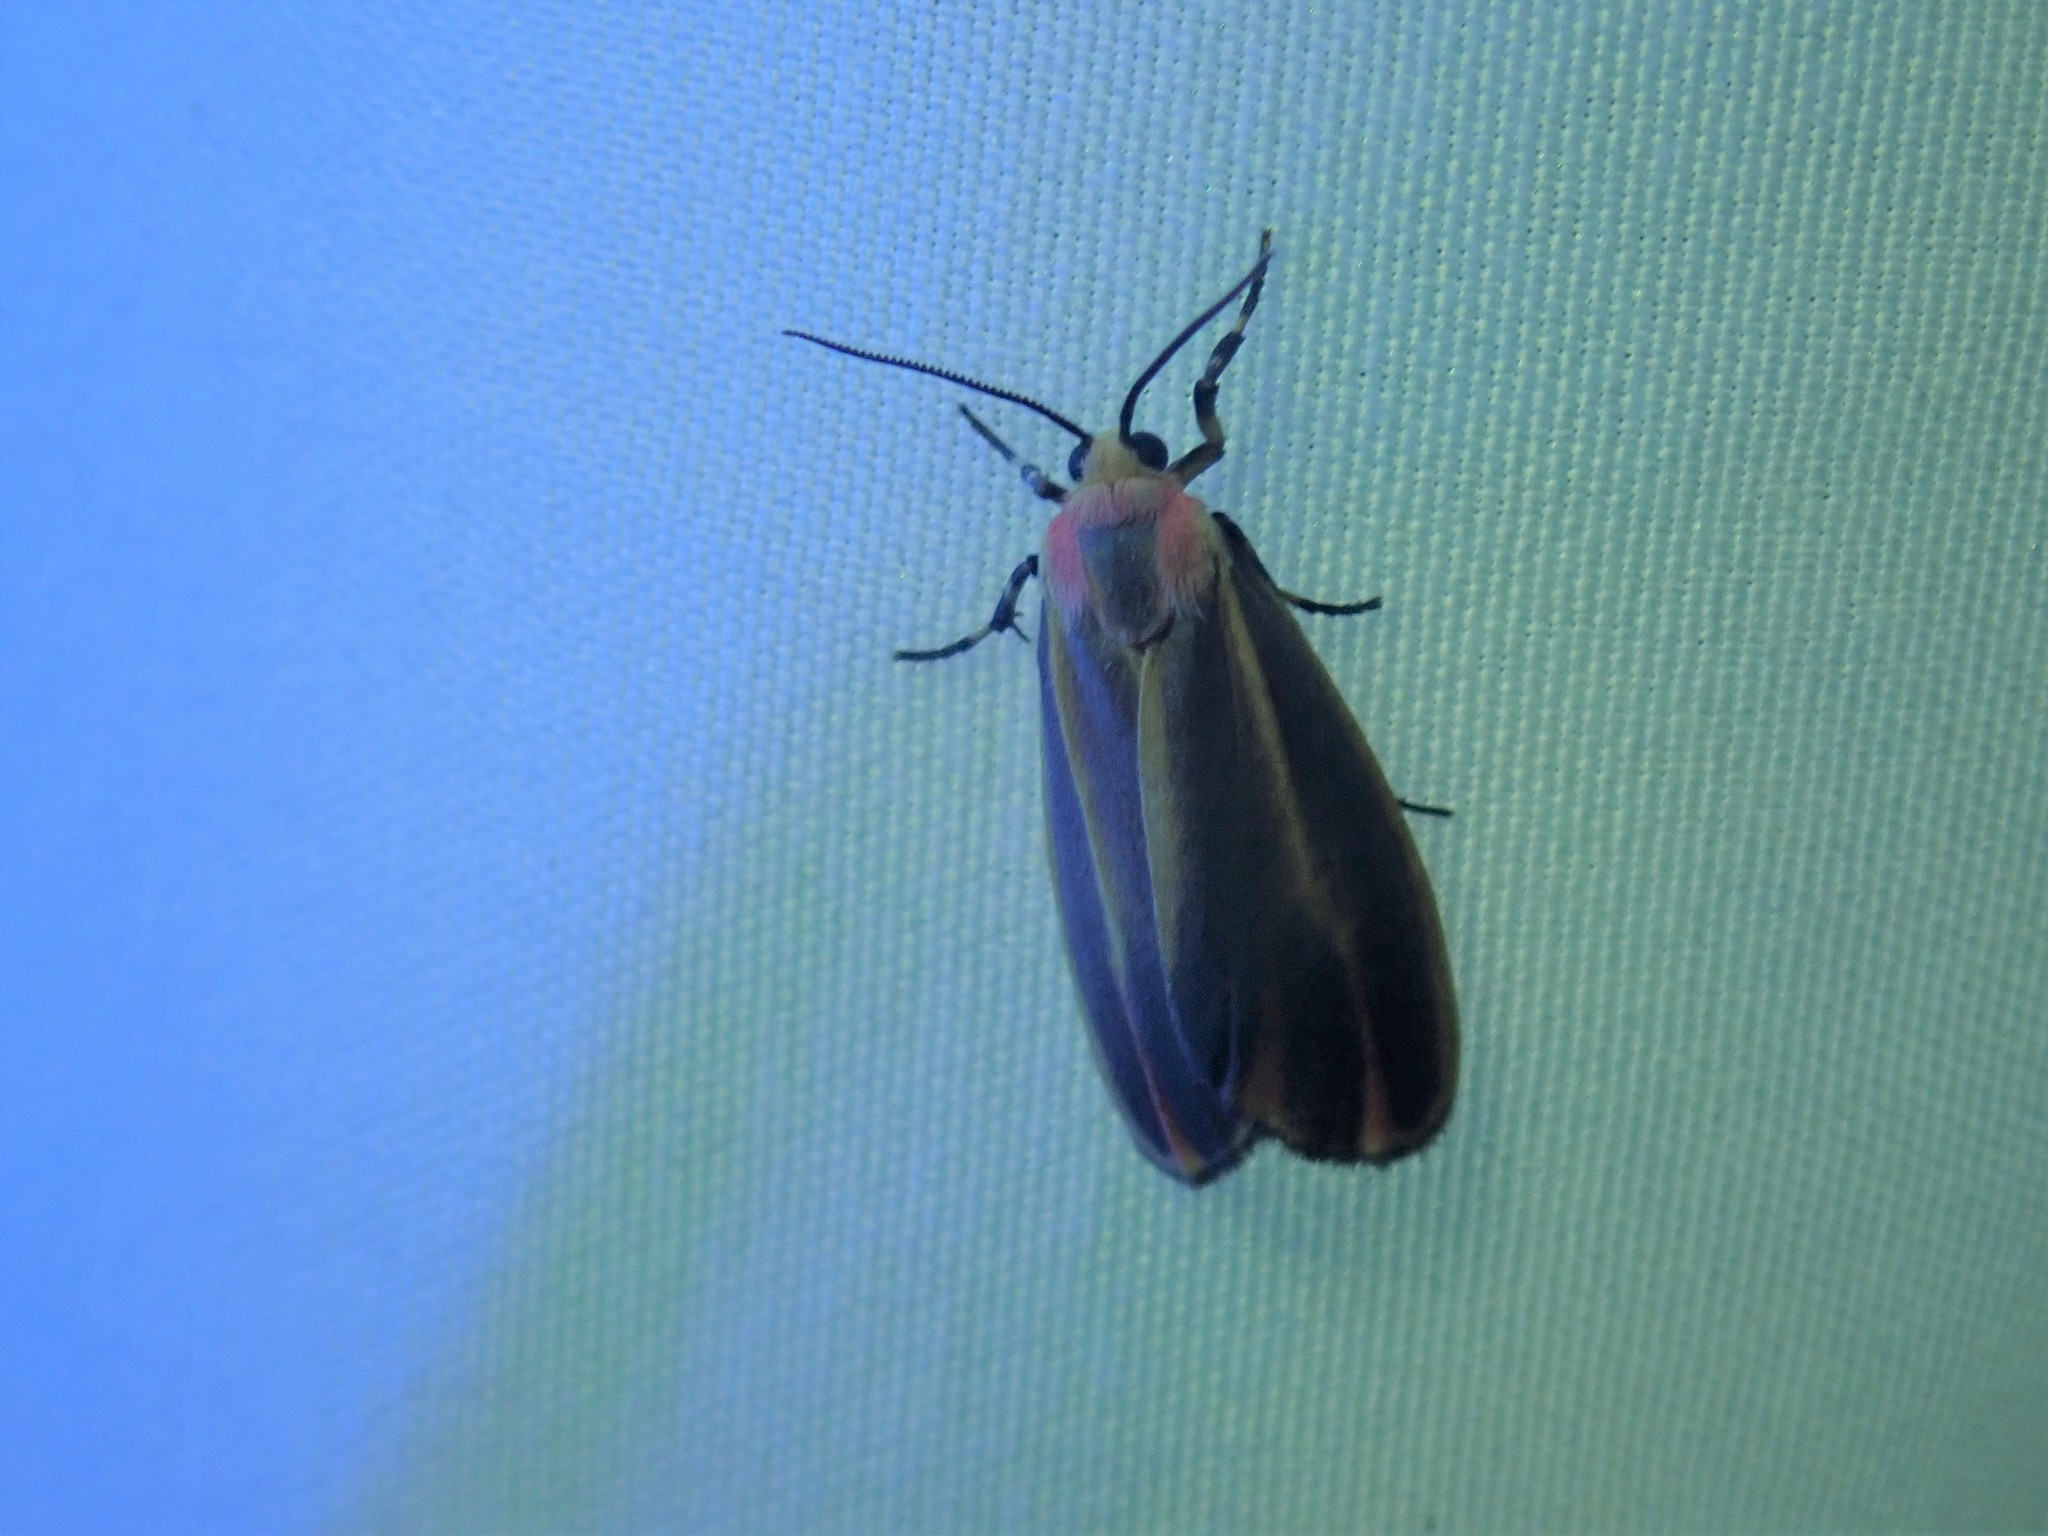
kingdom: Animalia
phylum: Arthropoda
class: Insecta
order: Lepidoptera
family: Erebidae
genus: Hypoprepia
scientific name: Hypoprepia fucosa
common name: Painted lichen moth
